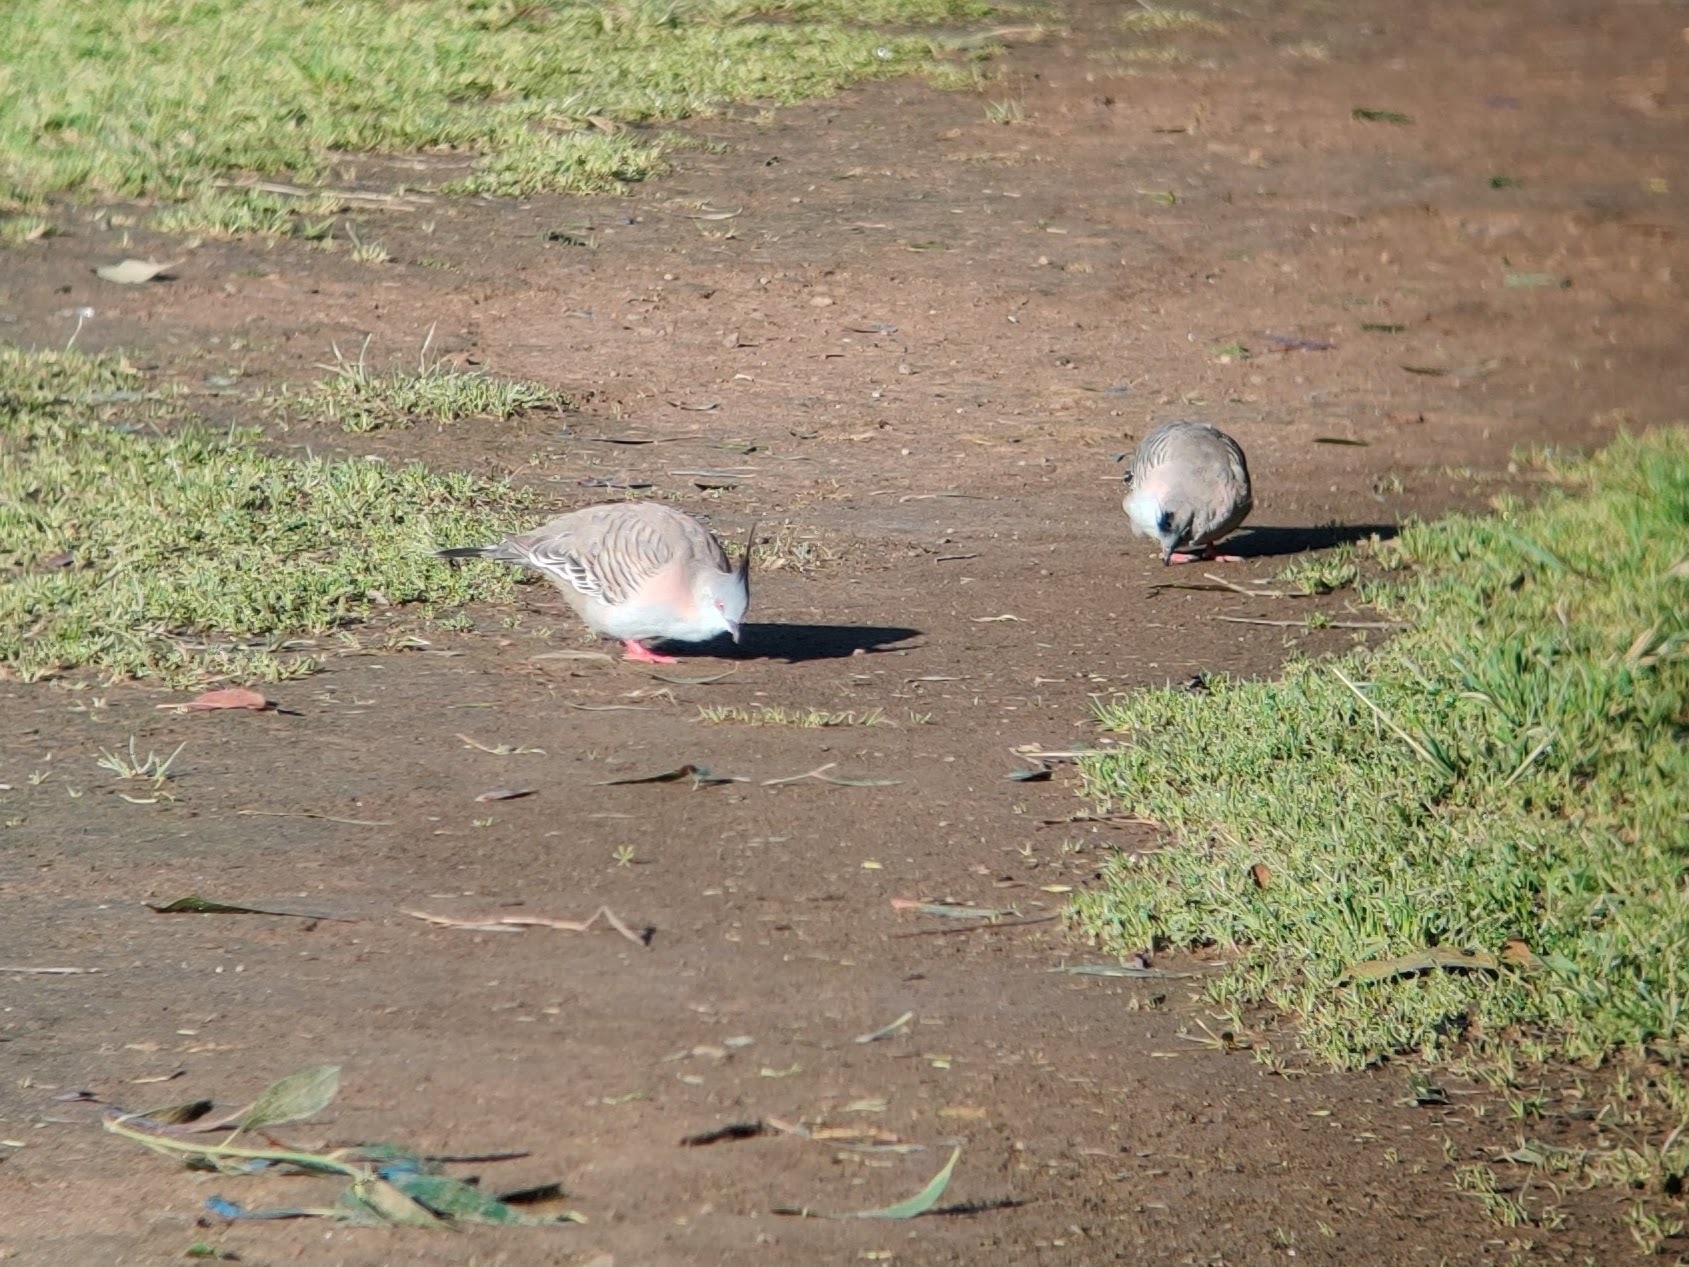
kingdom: Animalia
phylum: Chordata
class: Aves
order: Columbiformes
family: Columbidae
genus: Ocyphaps
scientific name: Ocyphaps lophotes
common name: Crested pigeon
